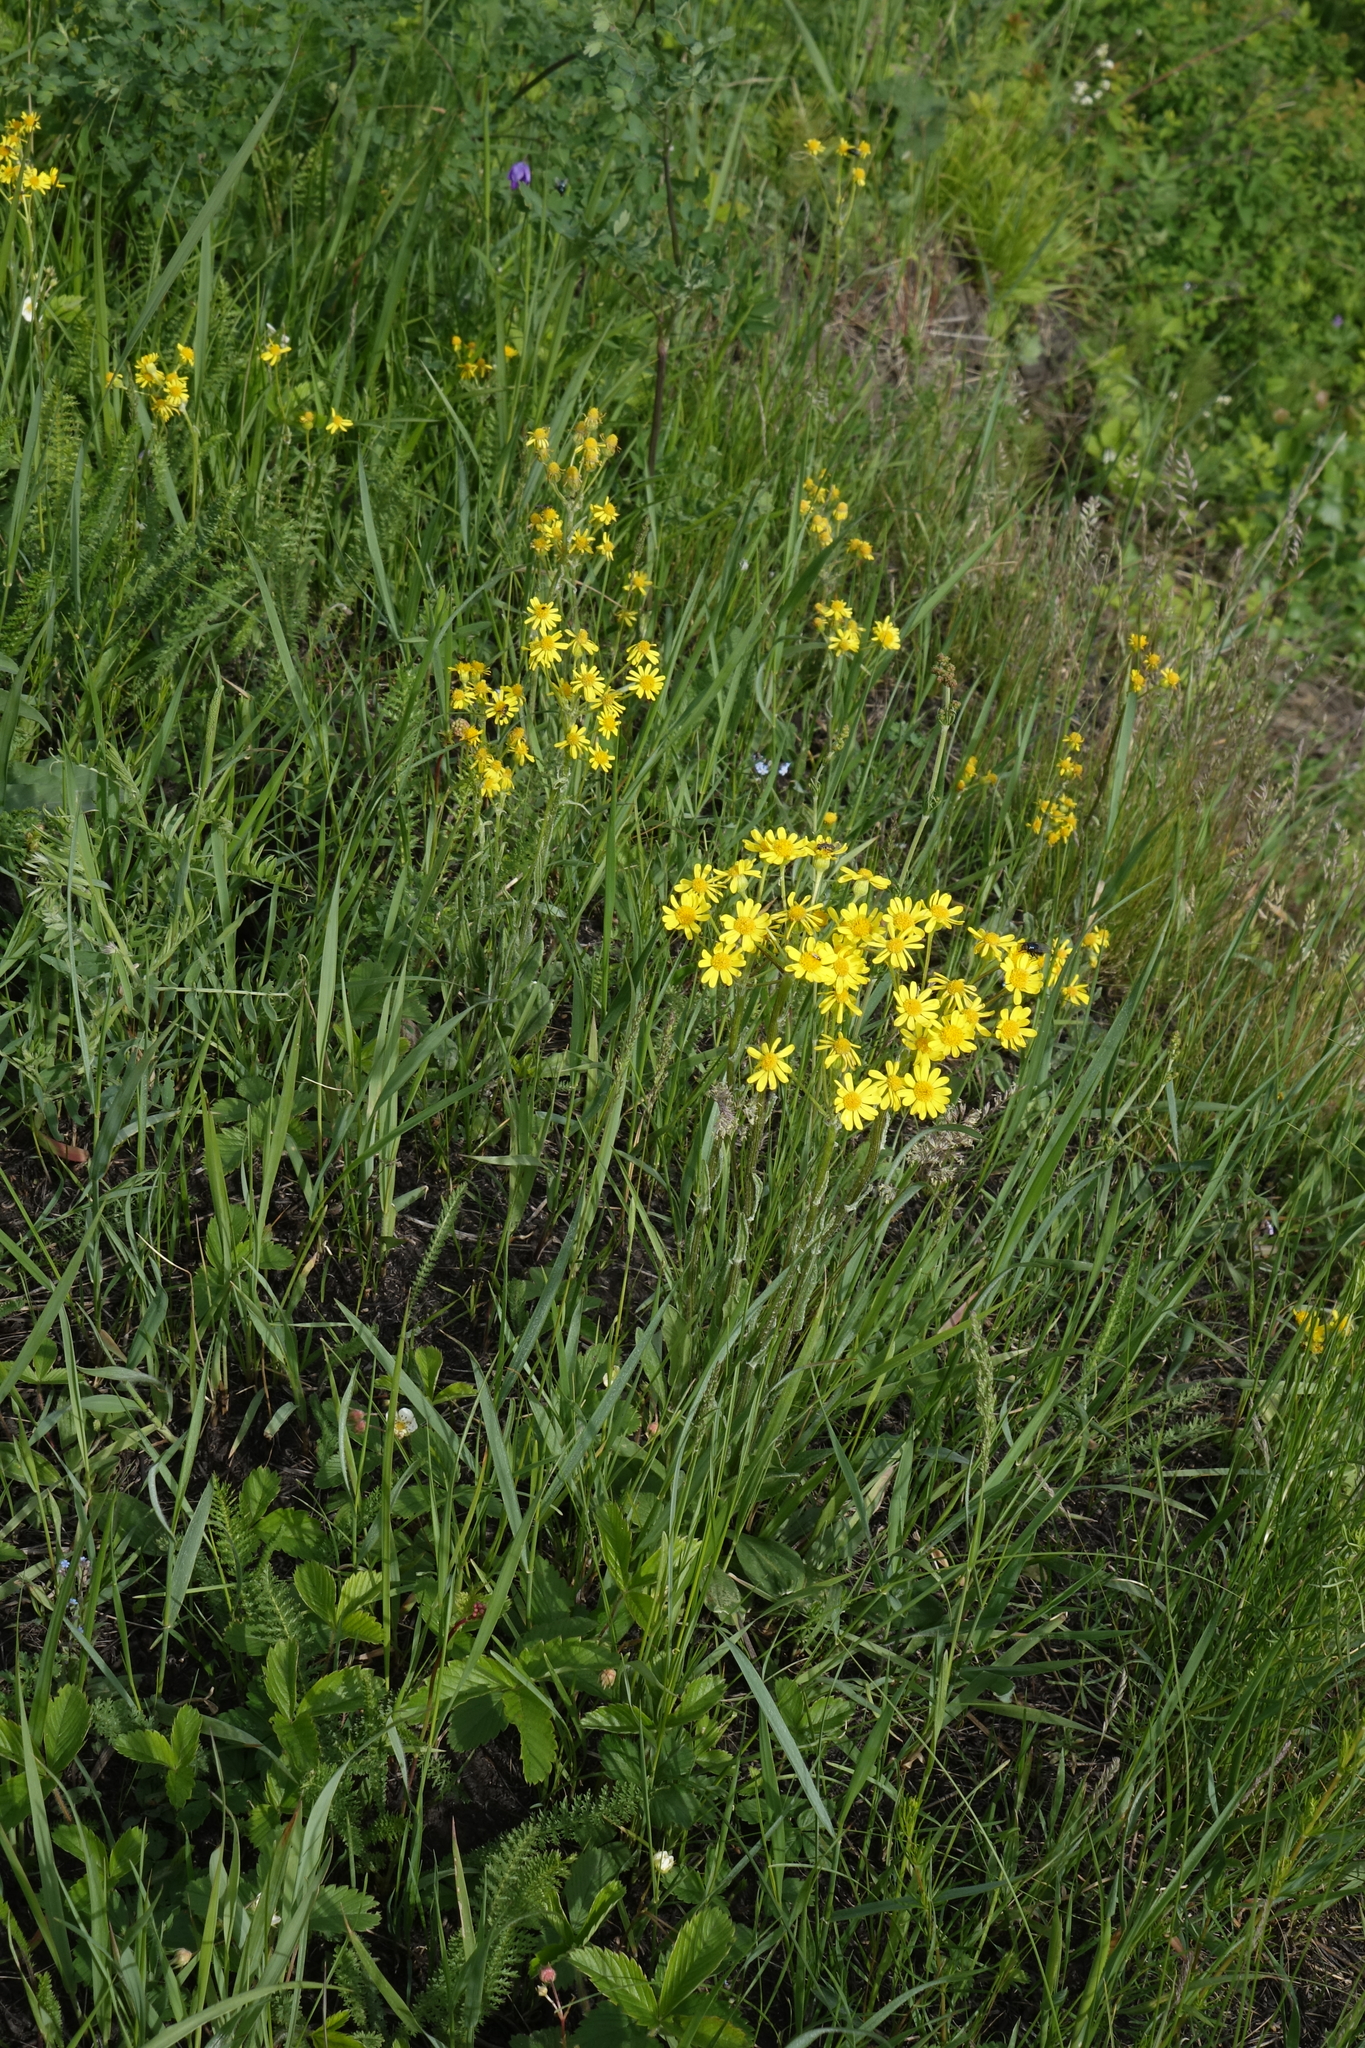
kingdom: Plantae
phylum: Tracheophyta
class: Magnoliopsida
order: Asterales
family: Asteraceae
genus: Tephroseris
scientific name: Tephroseris integrifolia
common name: Field fleawort
